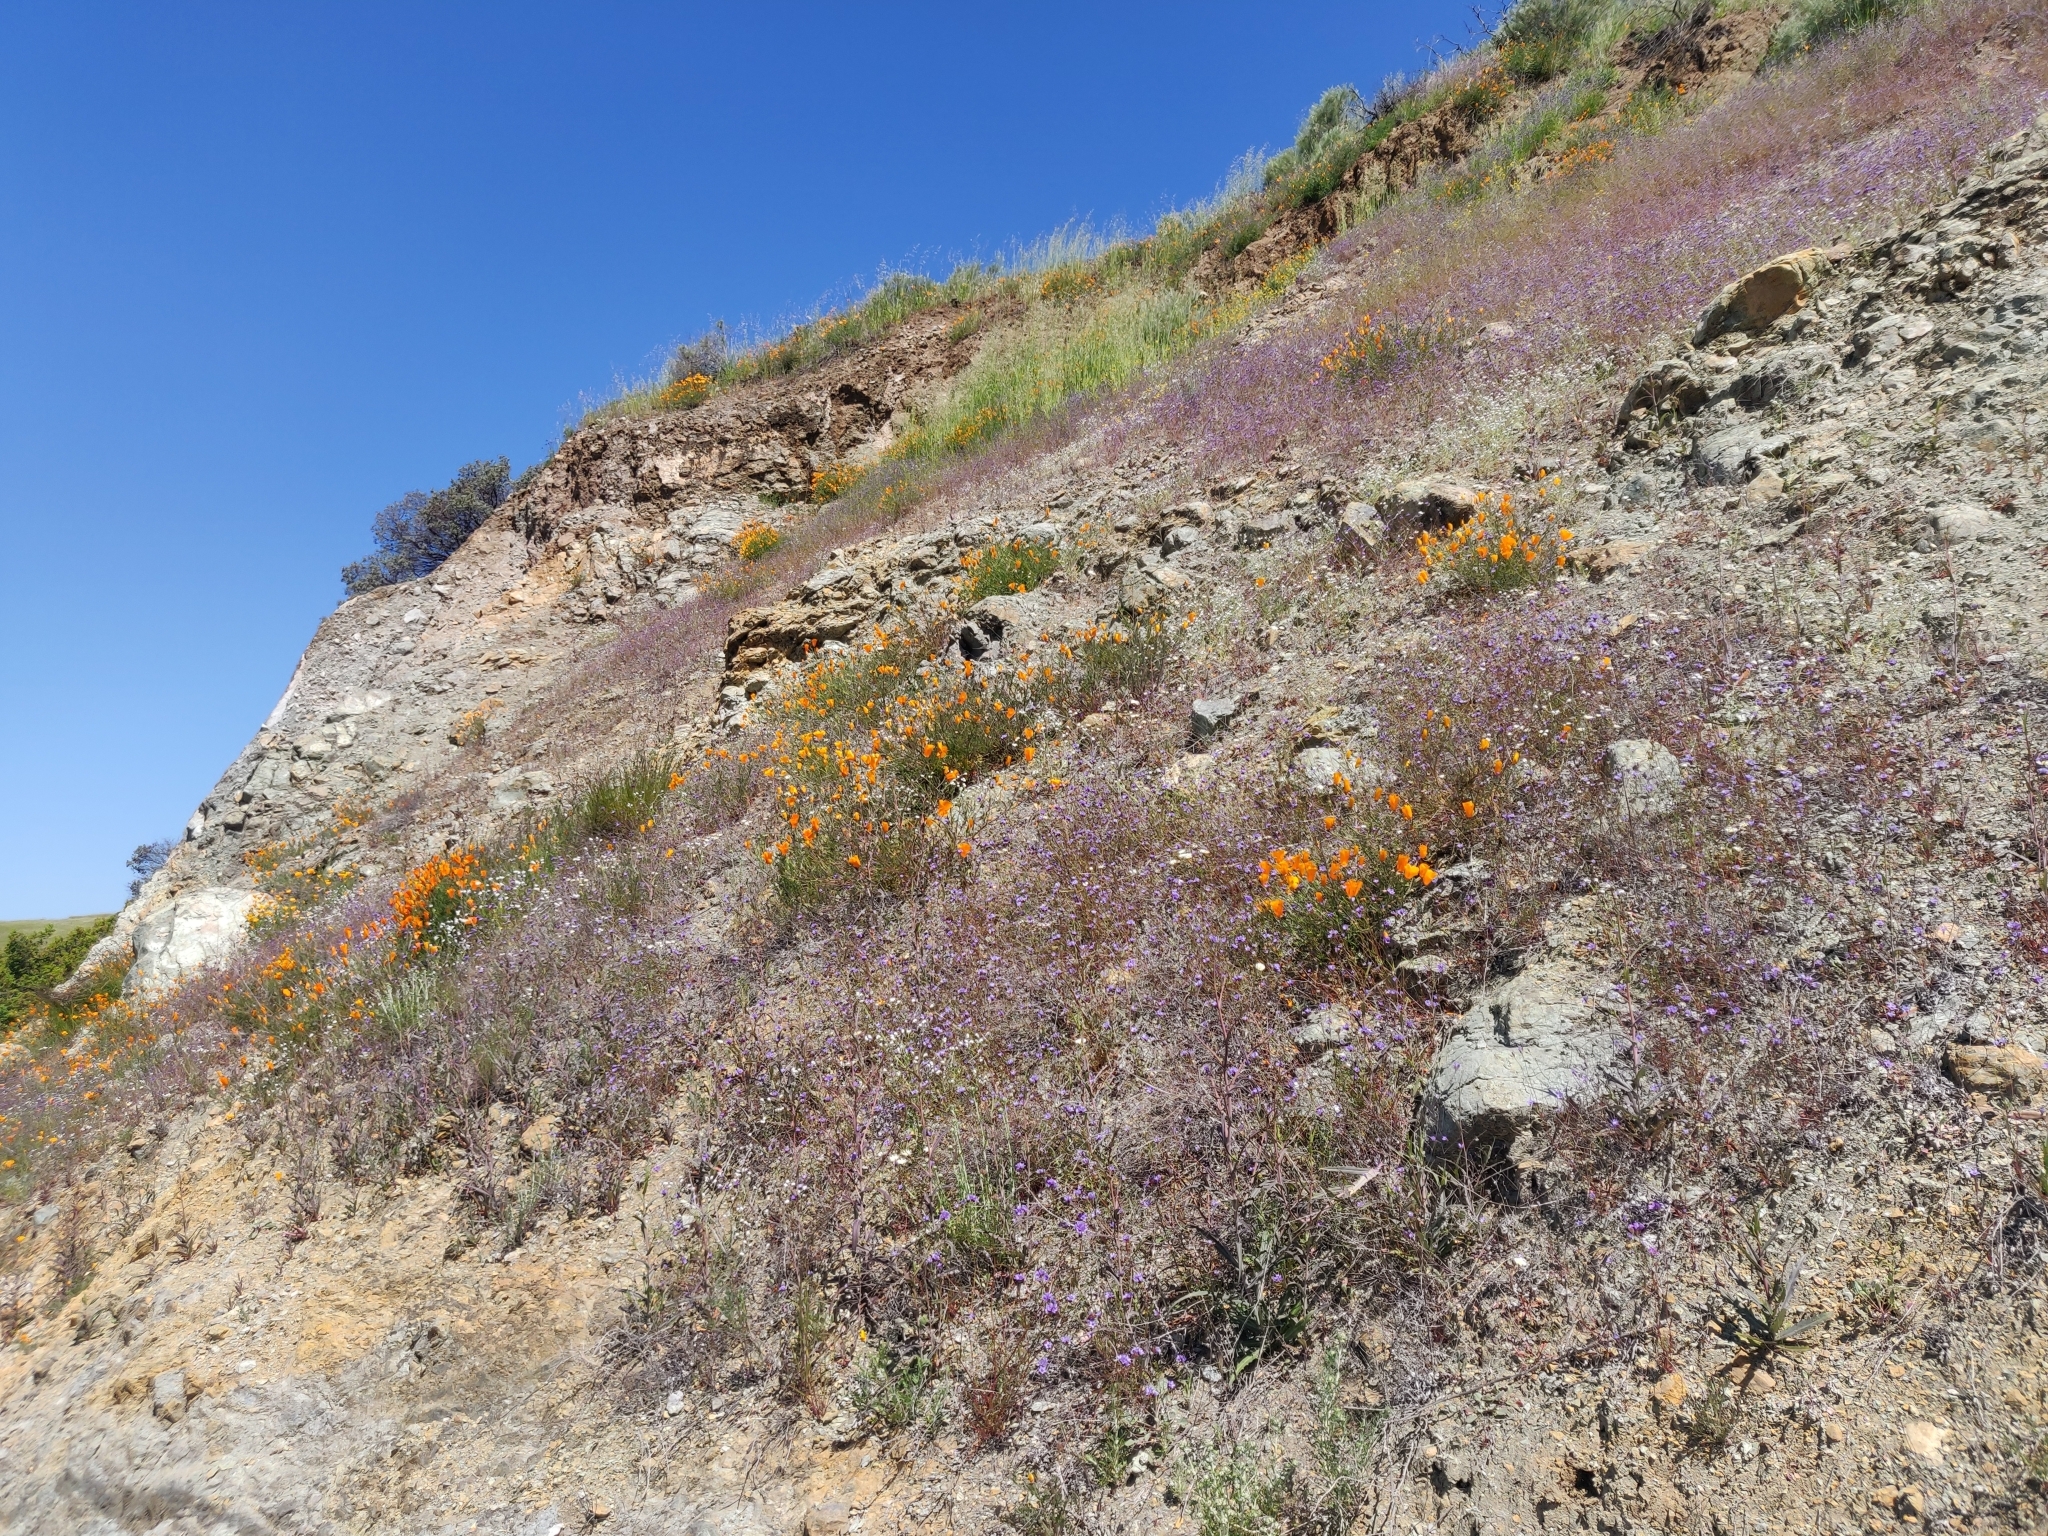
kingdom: Plantae
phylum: Tracheophyta
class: Magnoliopsida
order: Ranunculales
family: Papaveraceae
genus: Eschscholzia
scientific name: Eschscholzia californica
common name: California poppy
